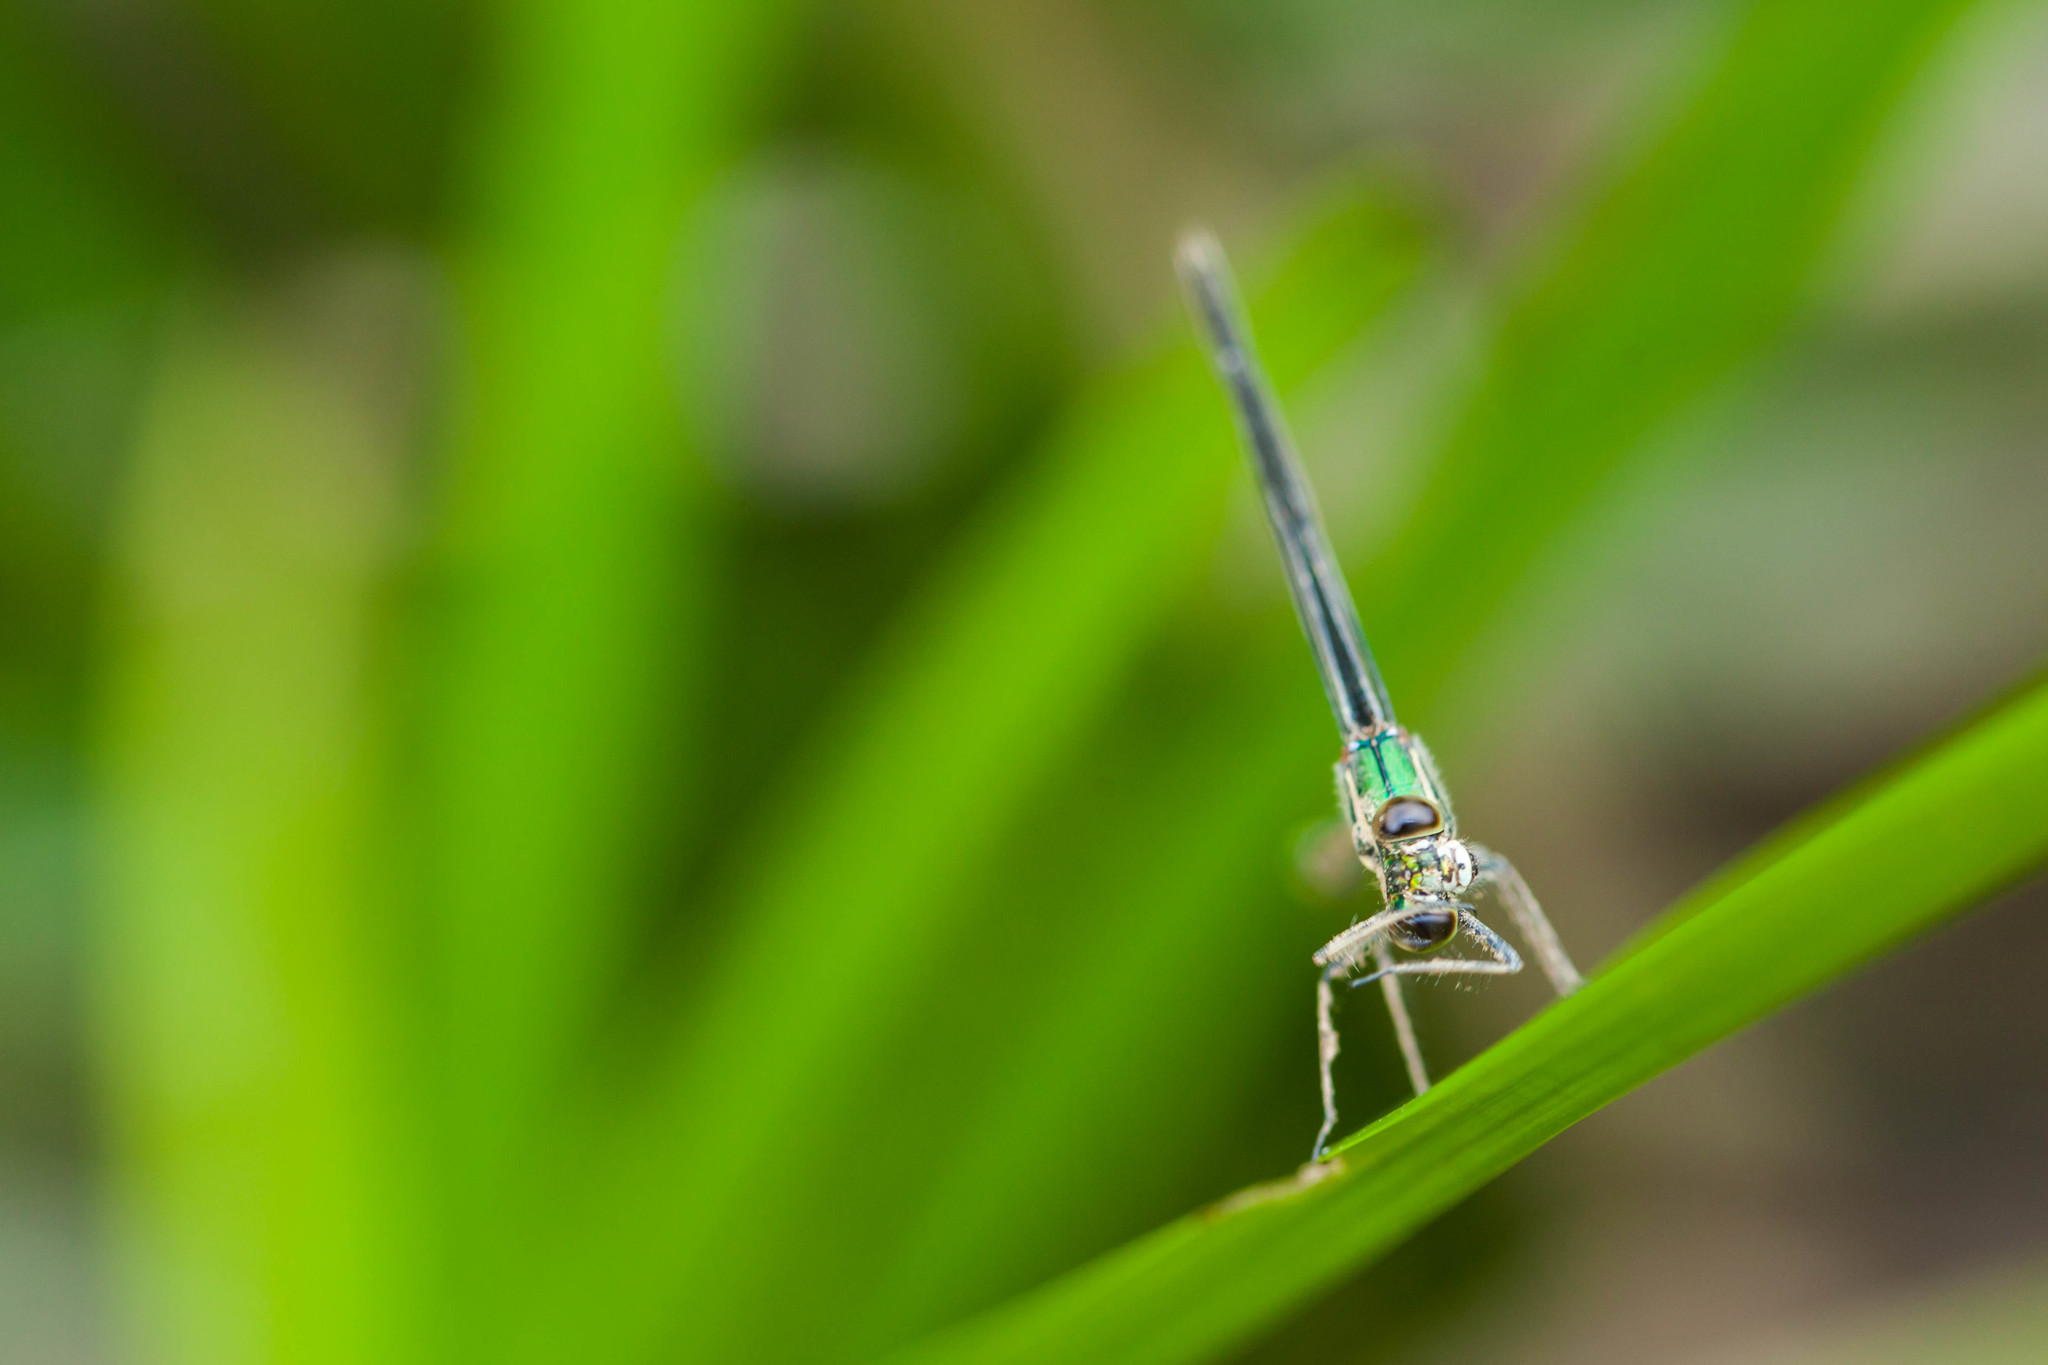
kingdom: Animalia
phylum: Arthropoda
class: Insecta
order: Odonata
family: Calopterygidae
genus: Hetaerina
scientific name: Hetaerina americana
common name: American rubyspot
